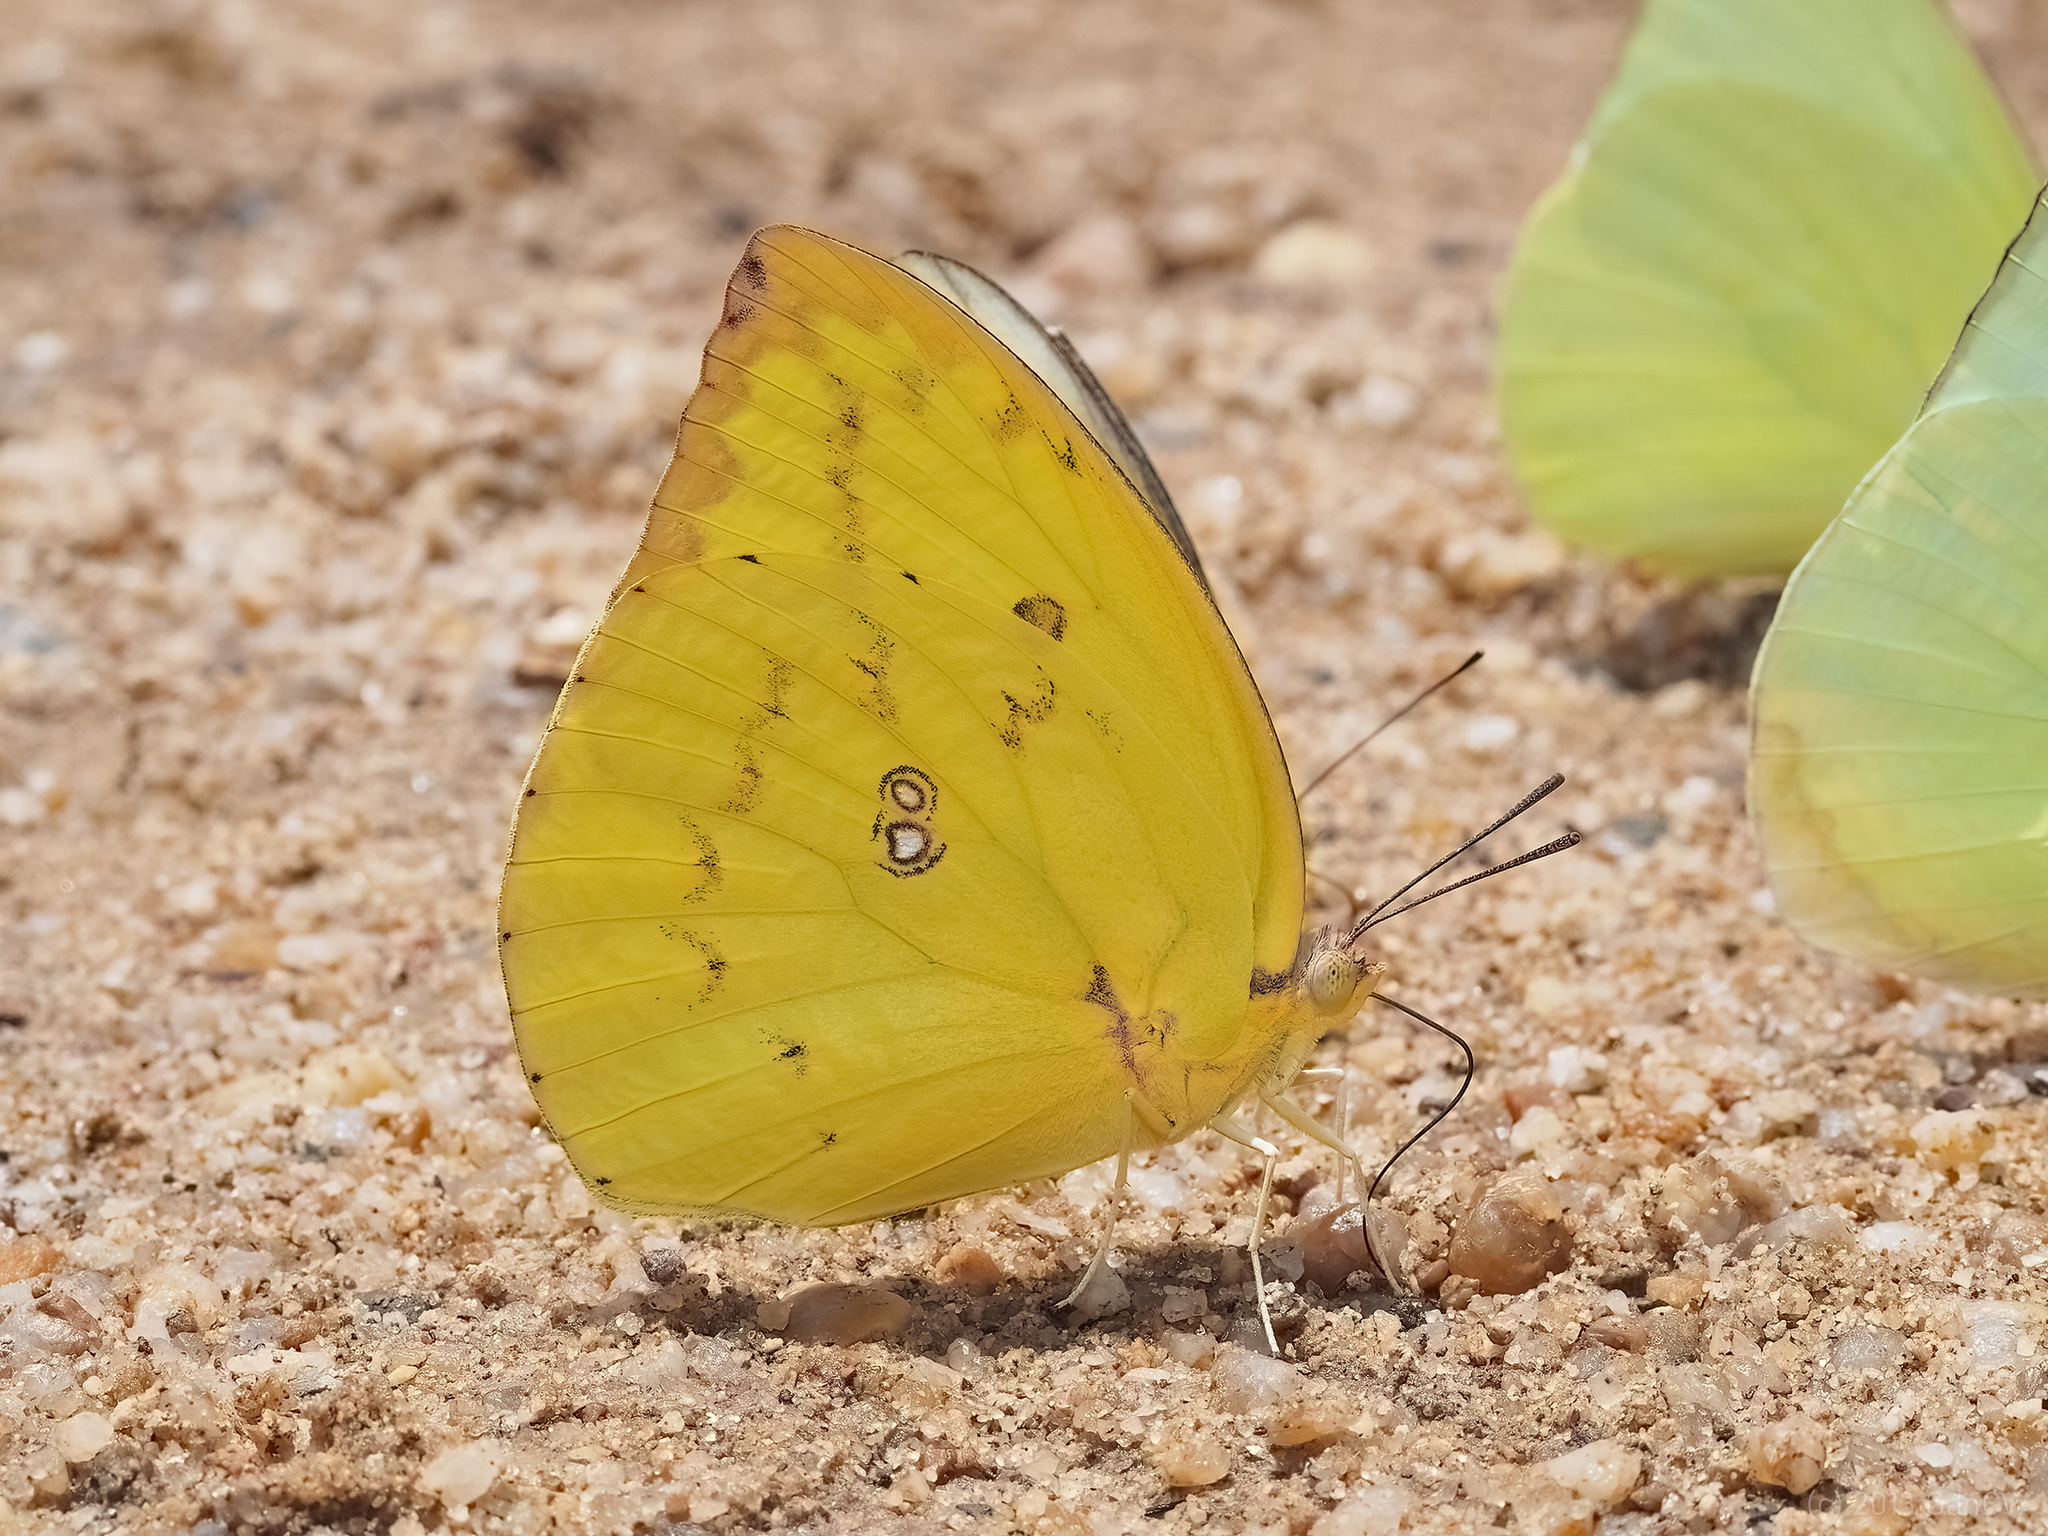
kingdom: Animalia
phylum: Arthropoda
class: Insecta
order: Lepidoptera
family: Pieridae
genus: Catopsilia
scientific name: Catopsilia pomona
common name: Common emigrant
